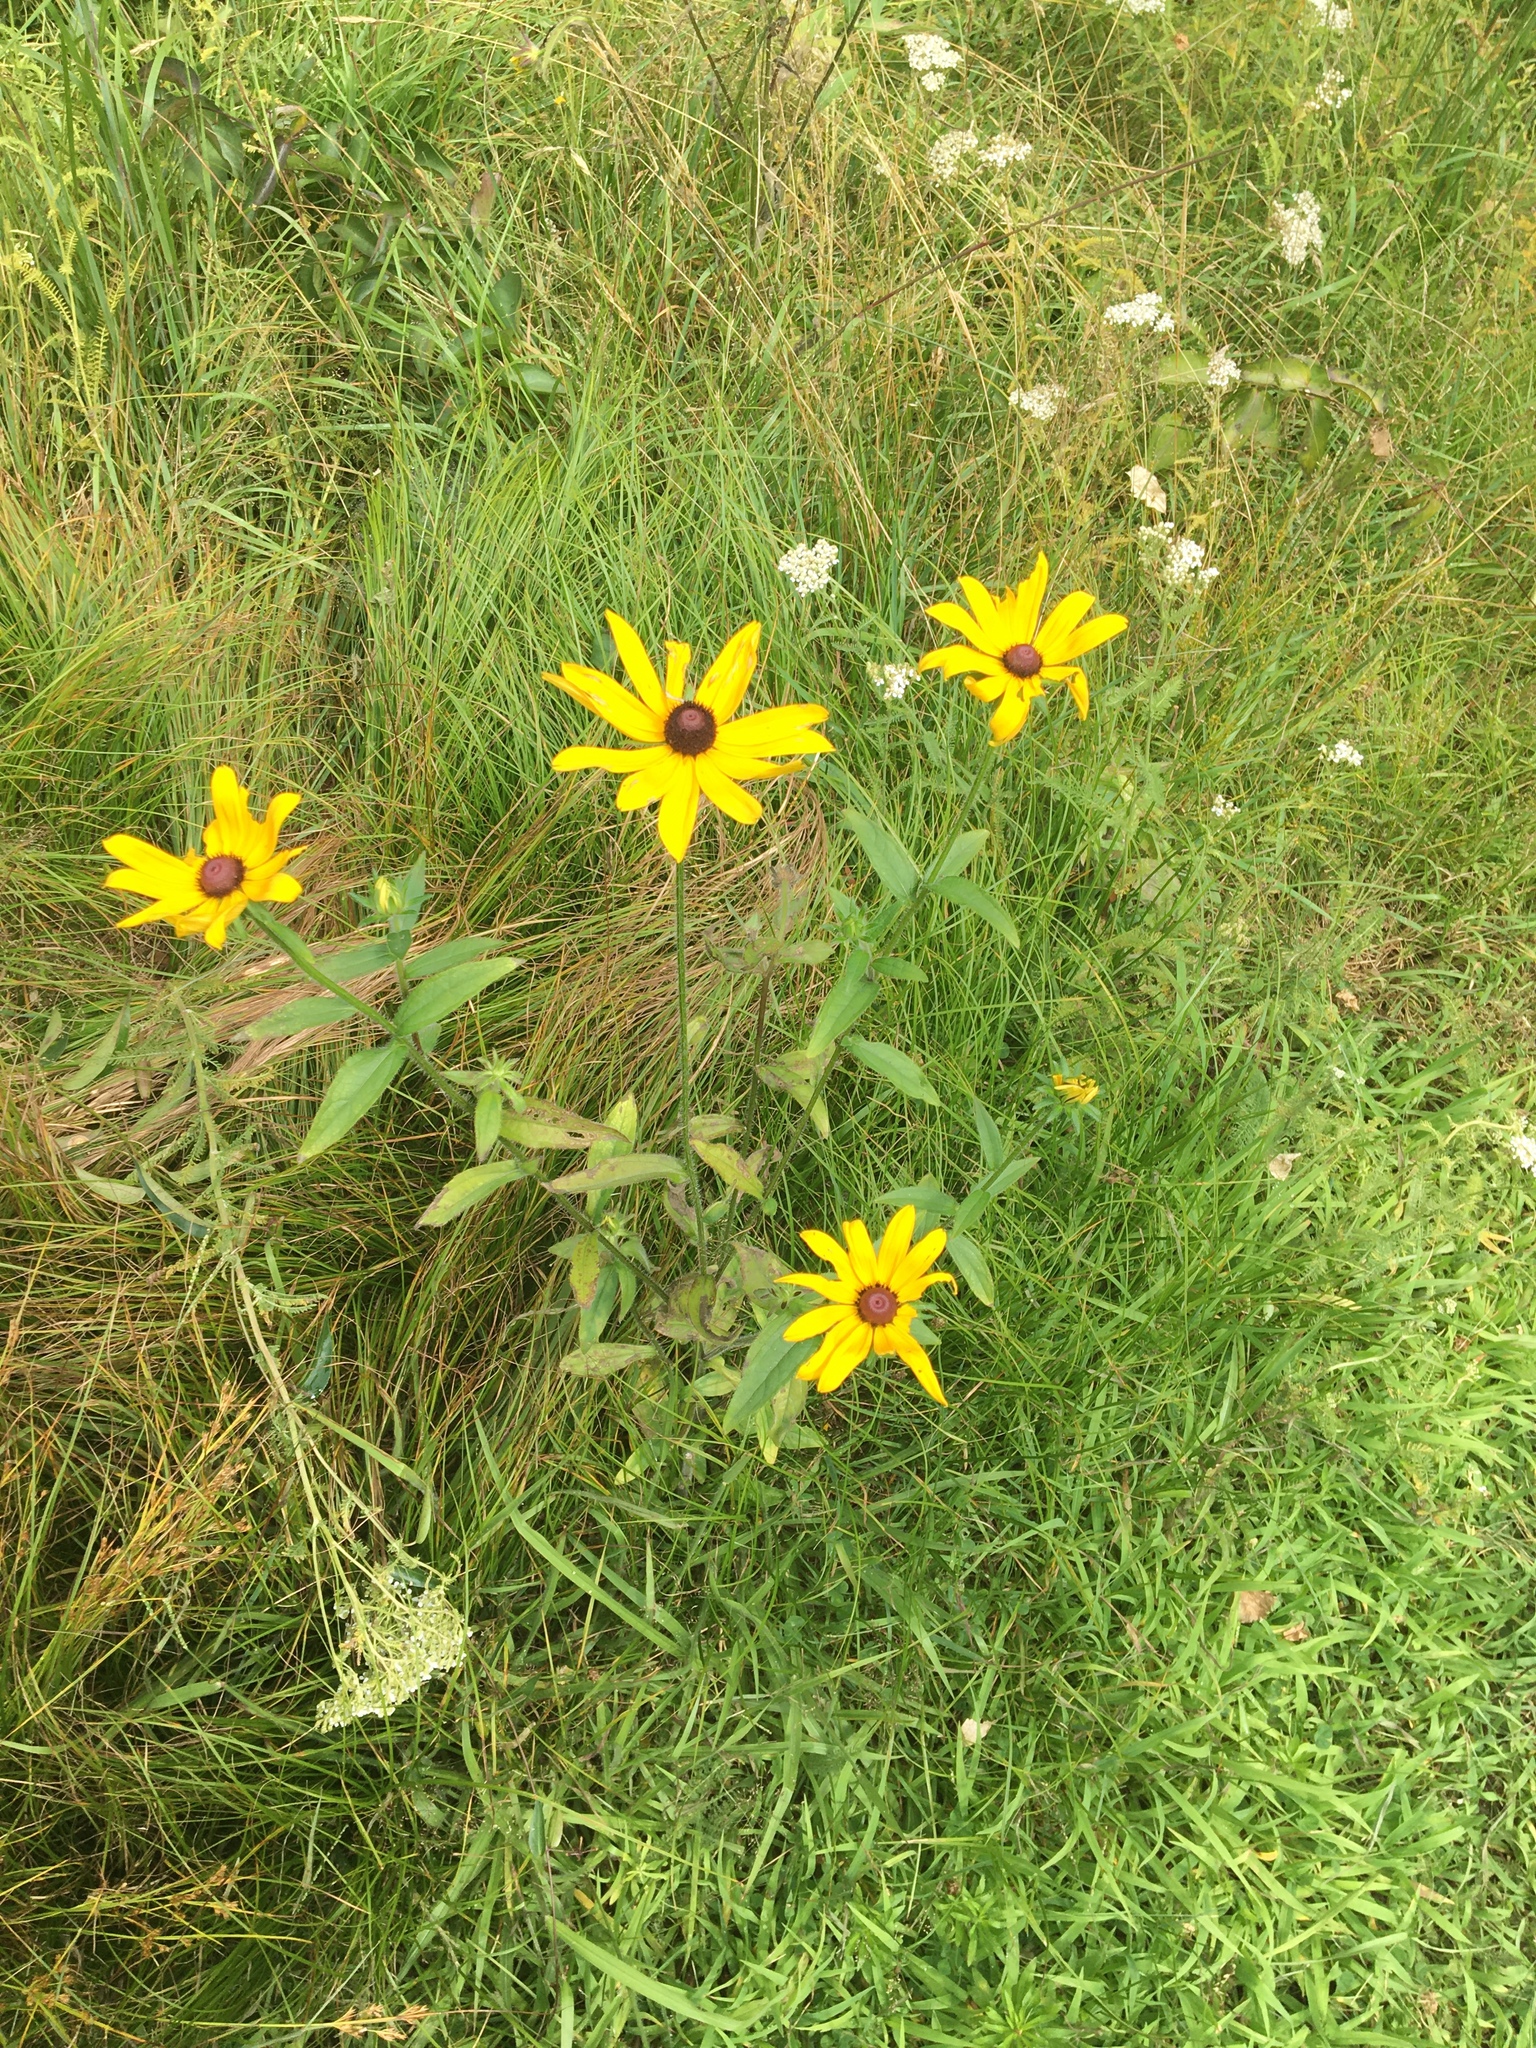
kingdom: Plantae
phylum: Tracheophyta
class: Magnoliopsida
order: Asterales
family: Asteraceae
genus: Rudbeckia
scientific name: Rudbeckia hirta
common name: Black-eyed-susan
